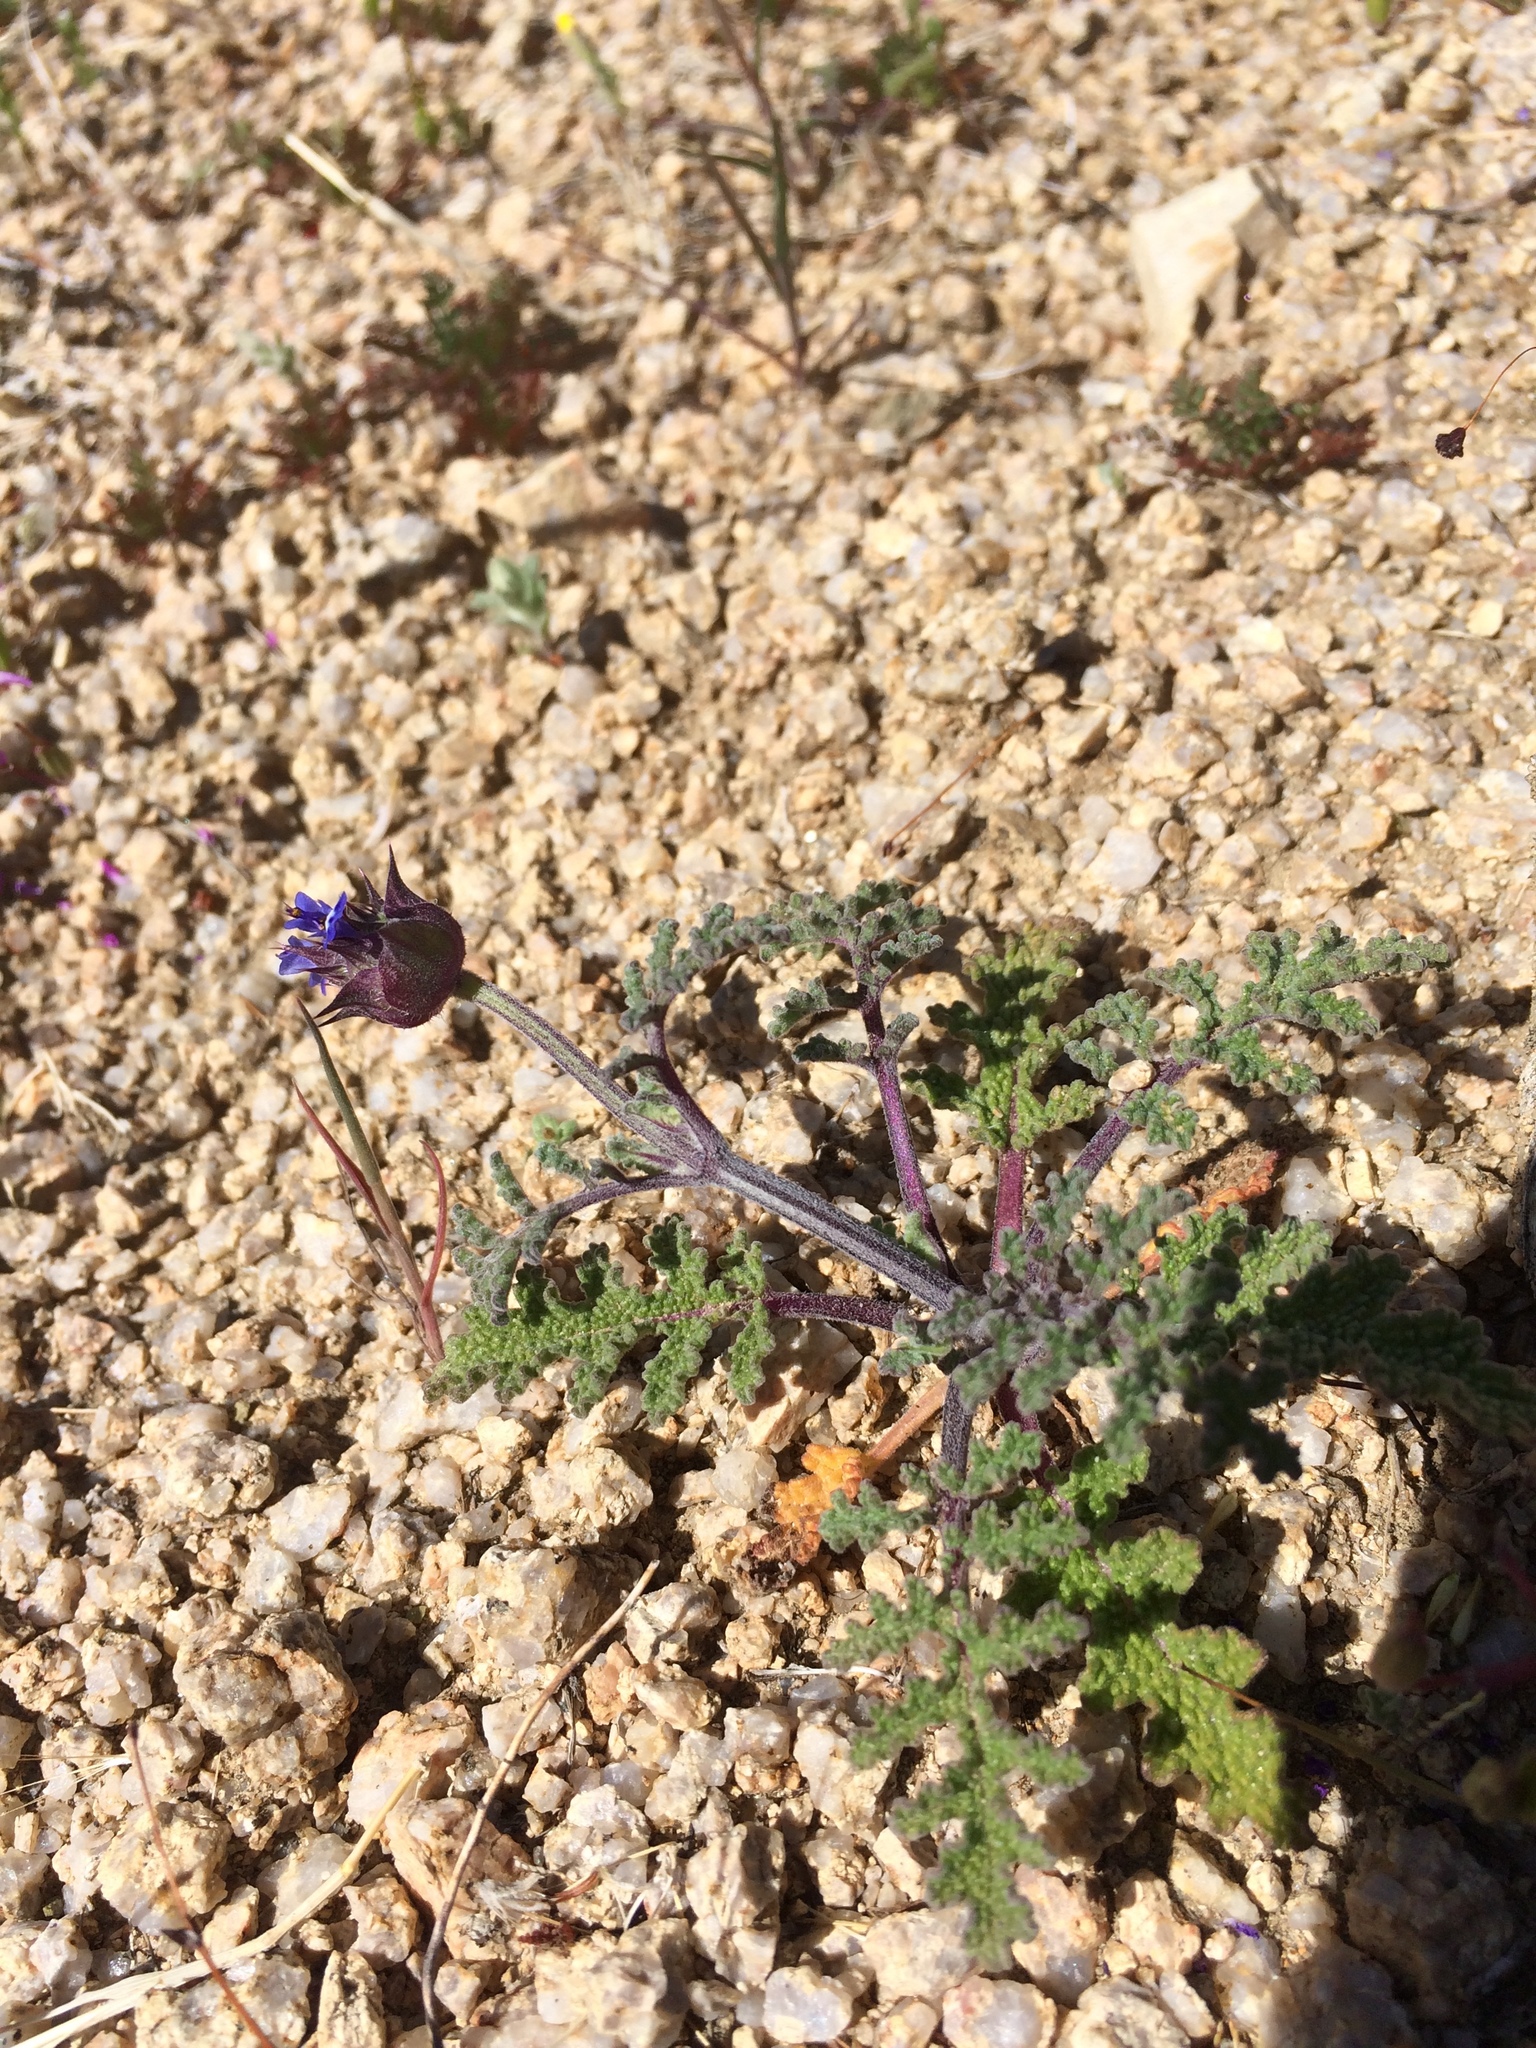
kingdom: Plantae
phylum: Tracheophyta
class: Magnoliopsida
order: Lamiales
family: Lamiaceae
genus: Salvia
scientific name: Salvia columbariae
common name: Chia
